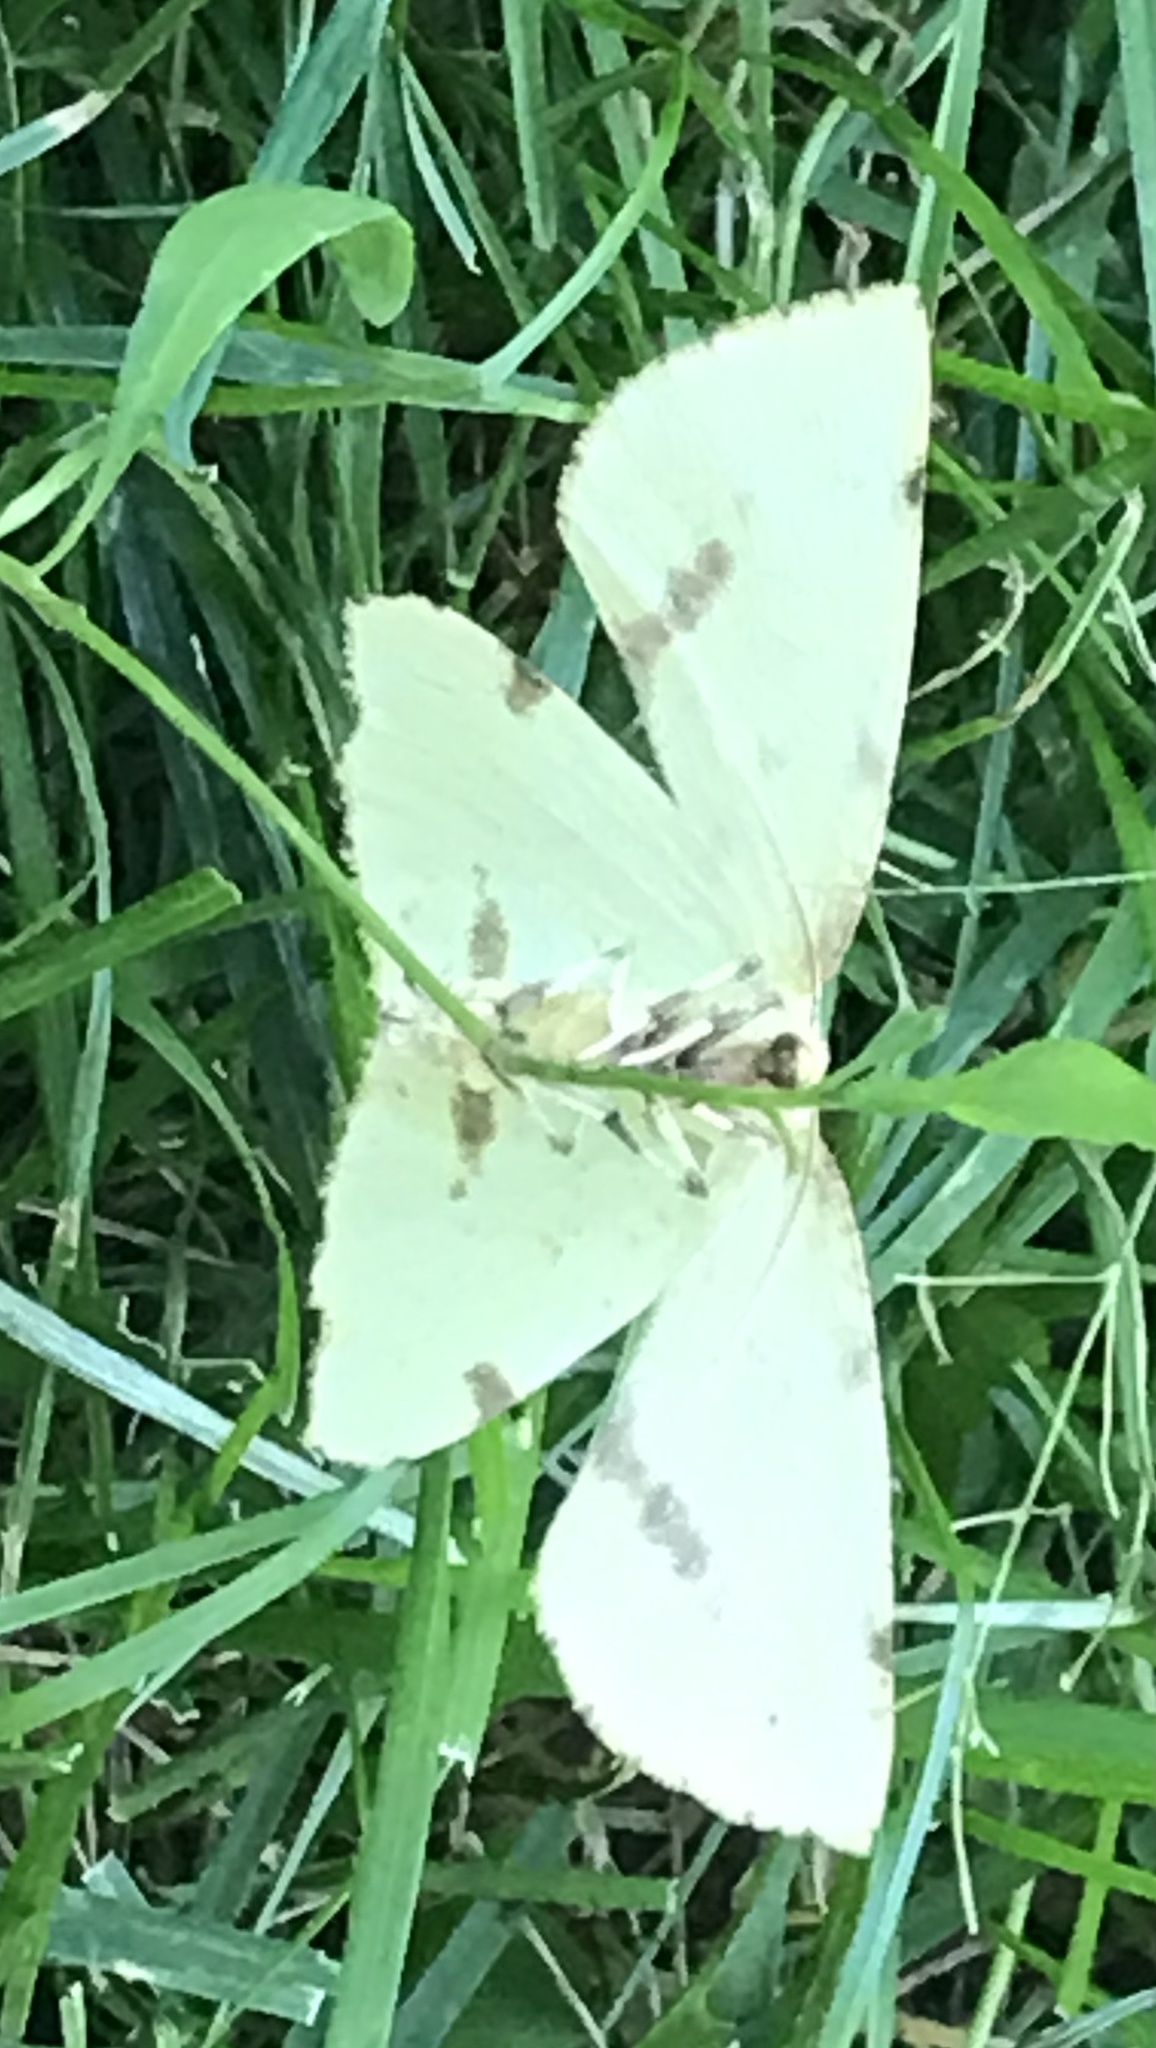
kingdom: Animalia
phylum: Arthropoda
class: Insecta
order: Lepidoptera
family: Geometridae
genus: Xanthotype
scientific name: Xanthotype
